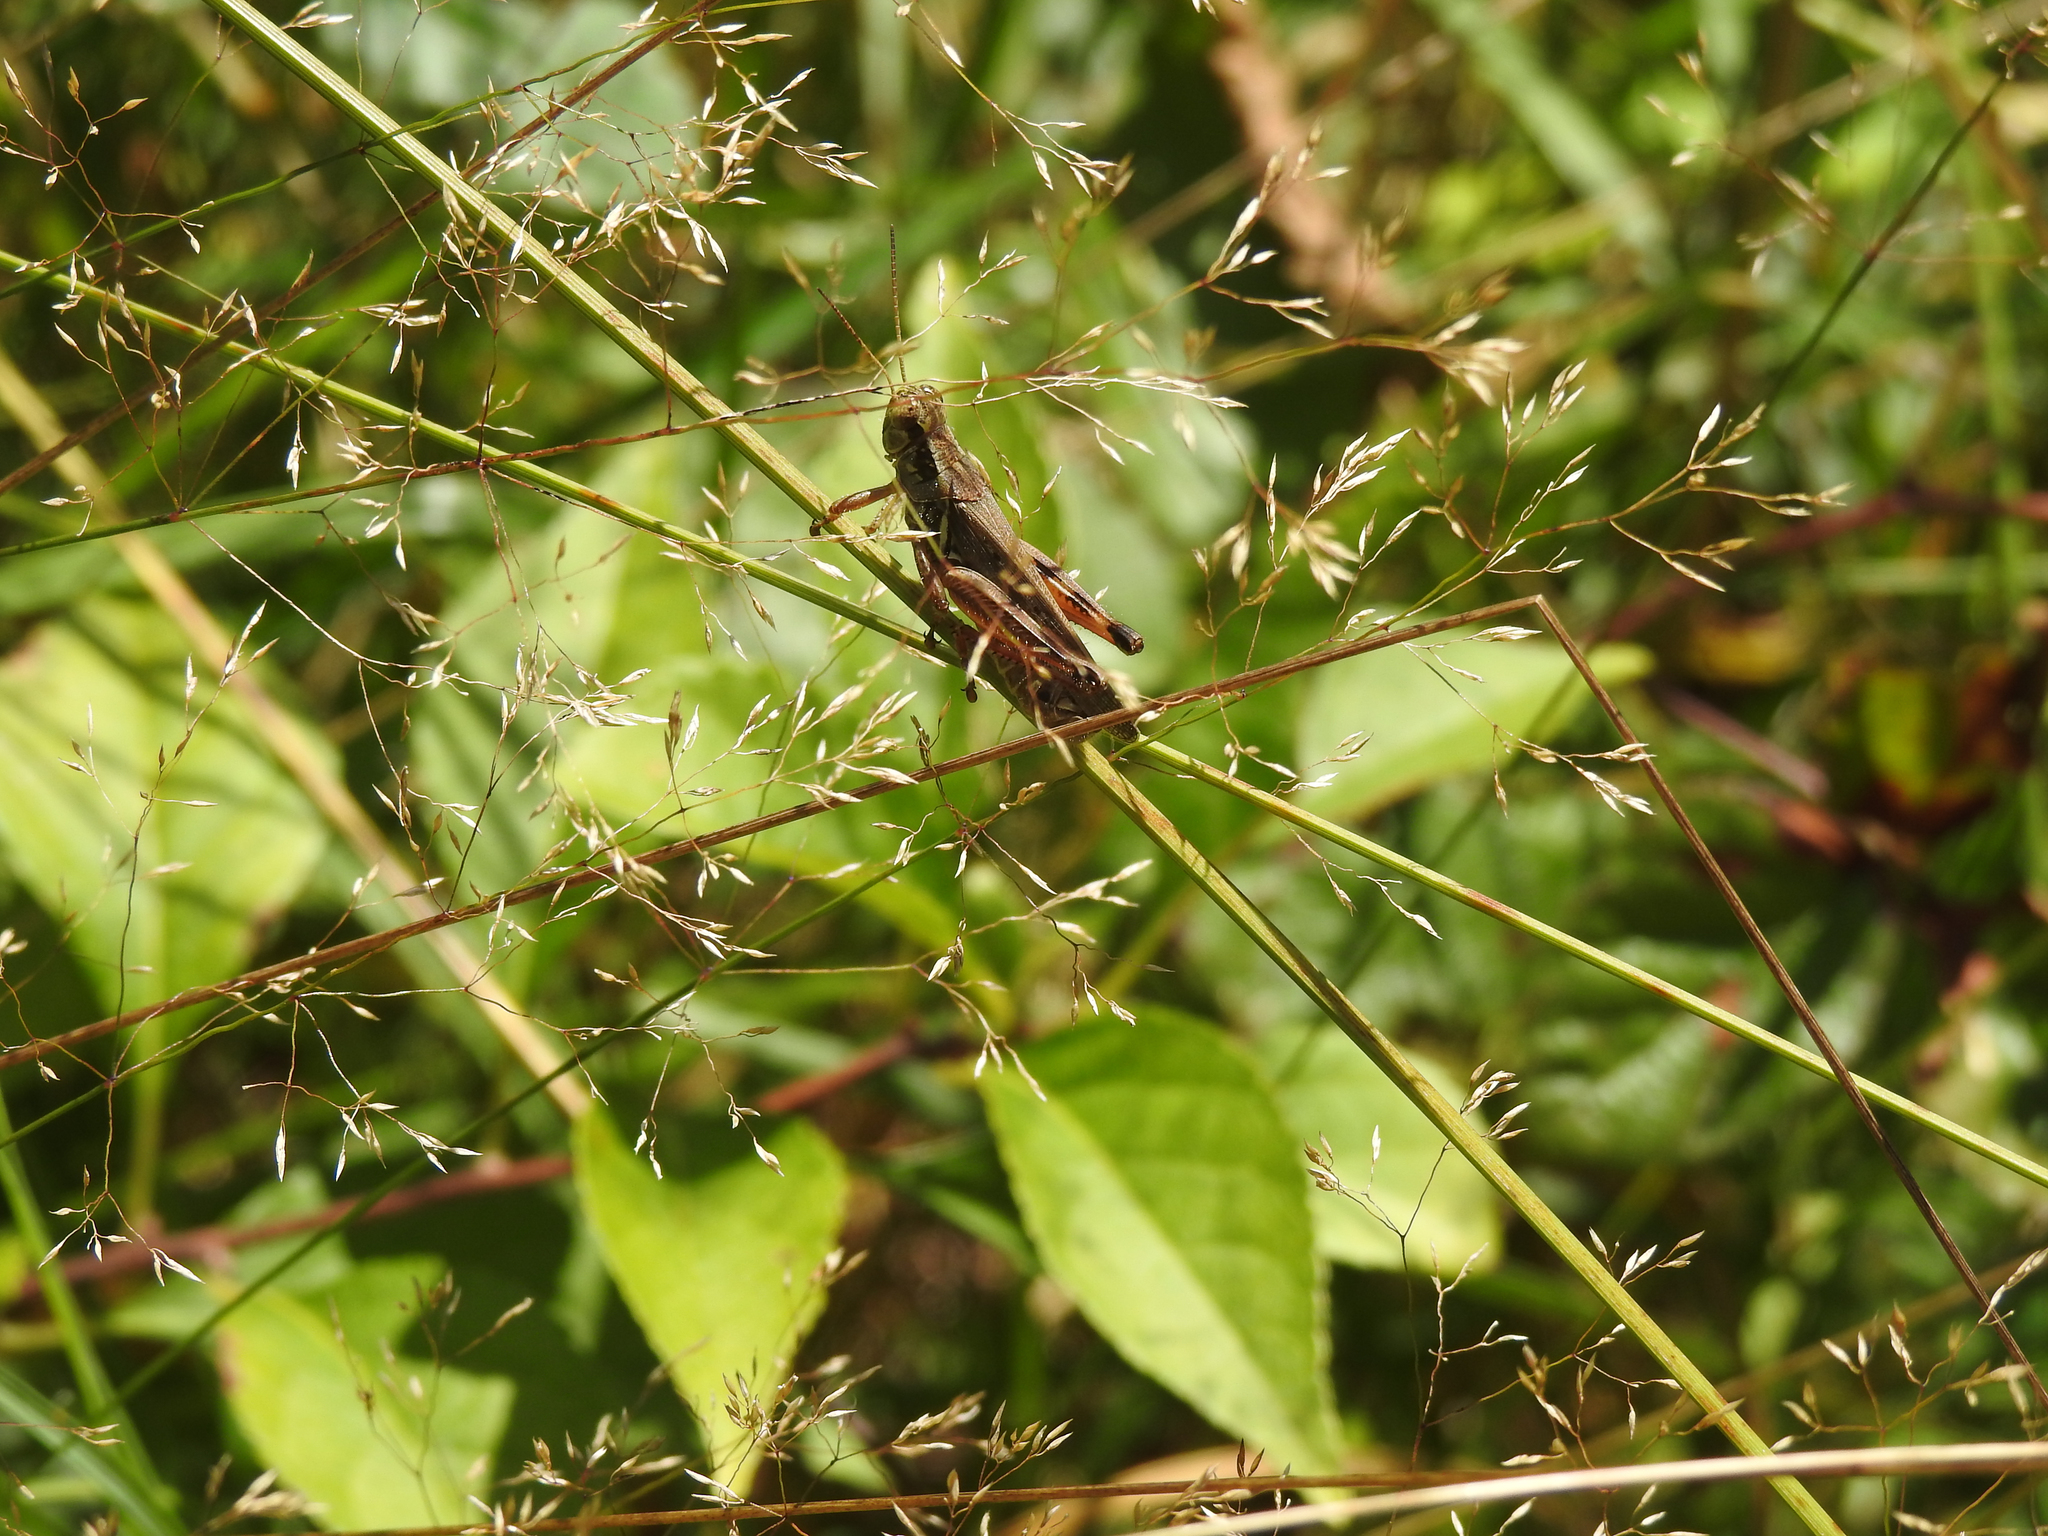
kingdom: Animalia
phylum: Arthropoda
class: Insecta
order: Orthoptera
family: Acrididae
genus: Melanoplus
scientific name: Melanoplus femurrubrum
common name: Red-legged grasshopper
